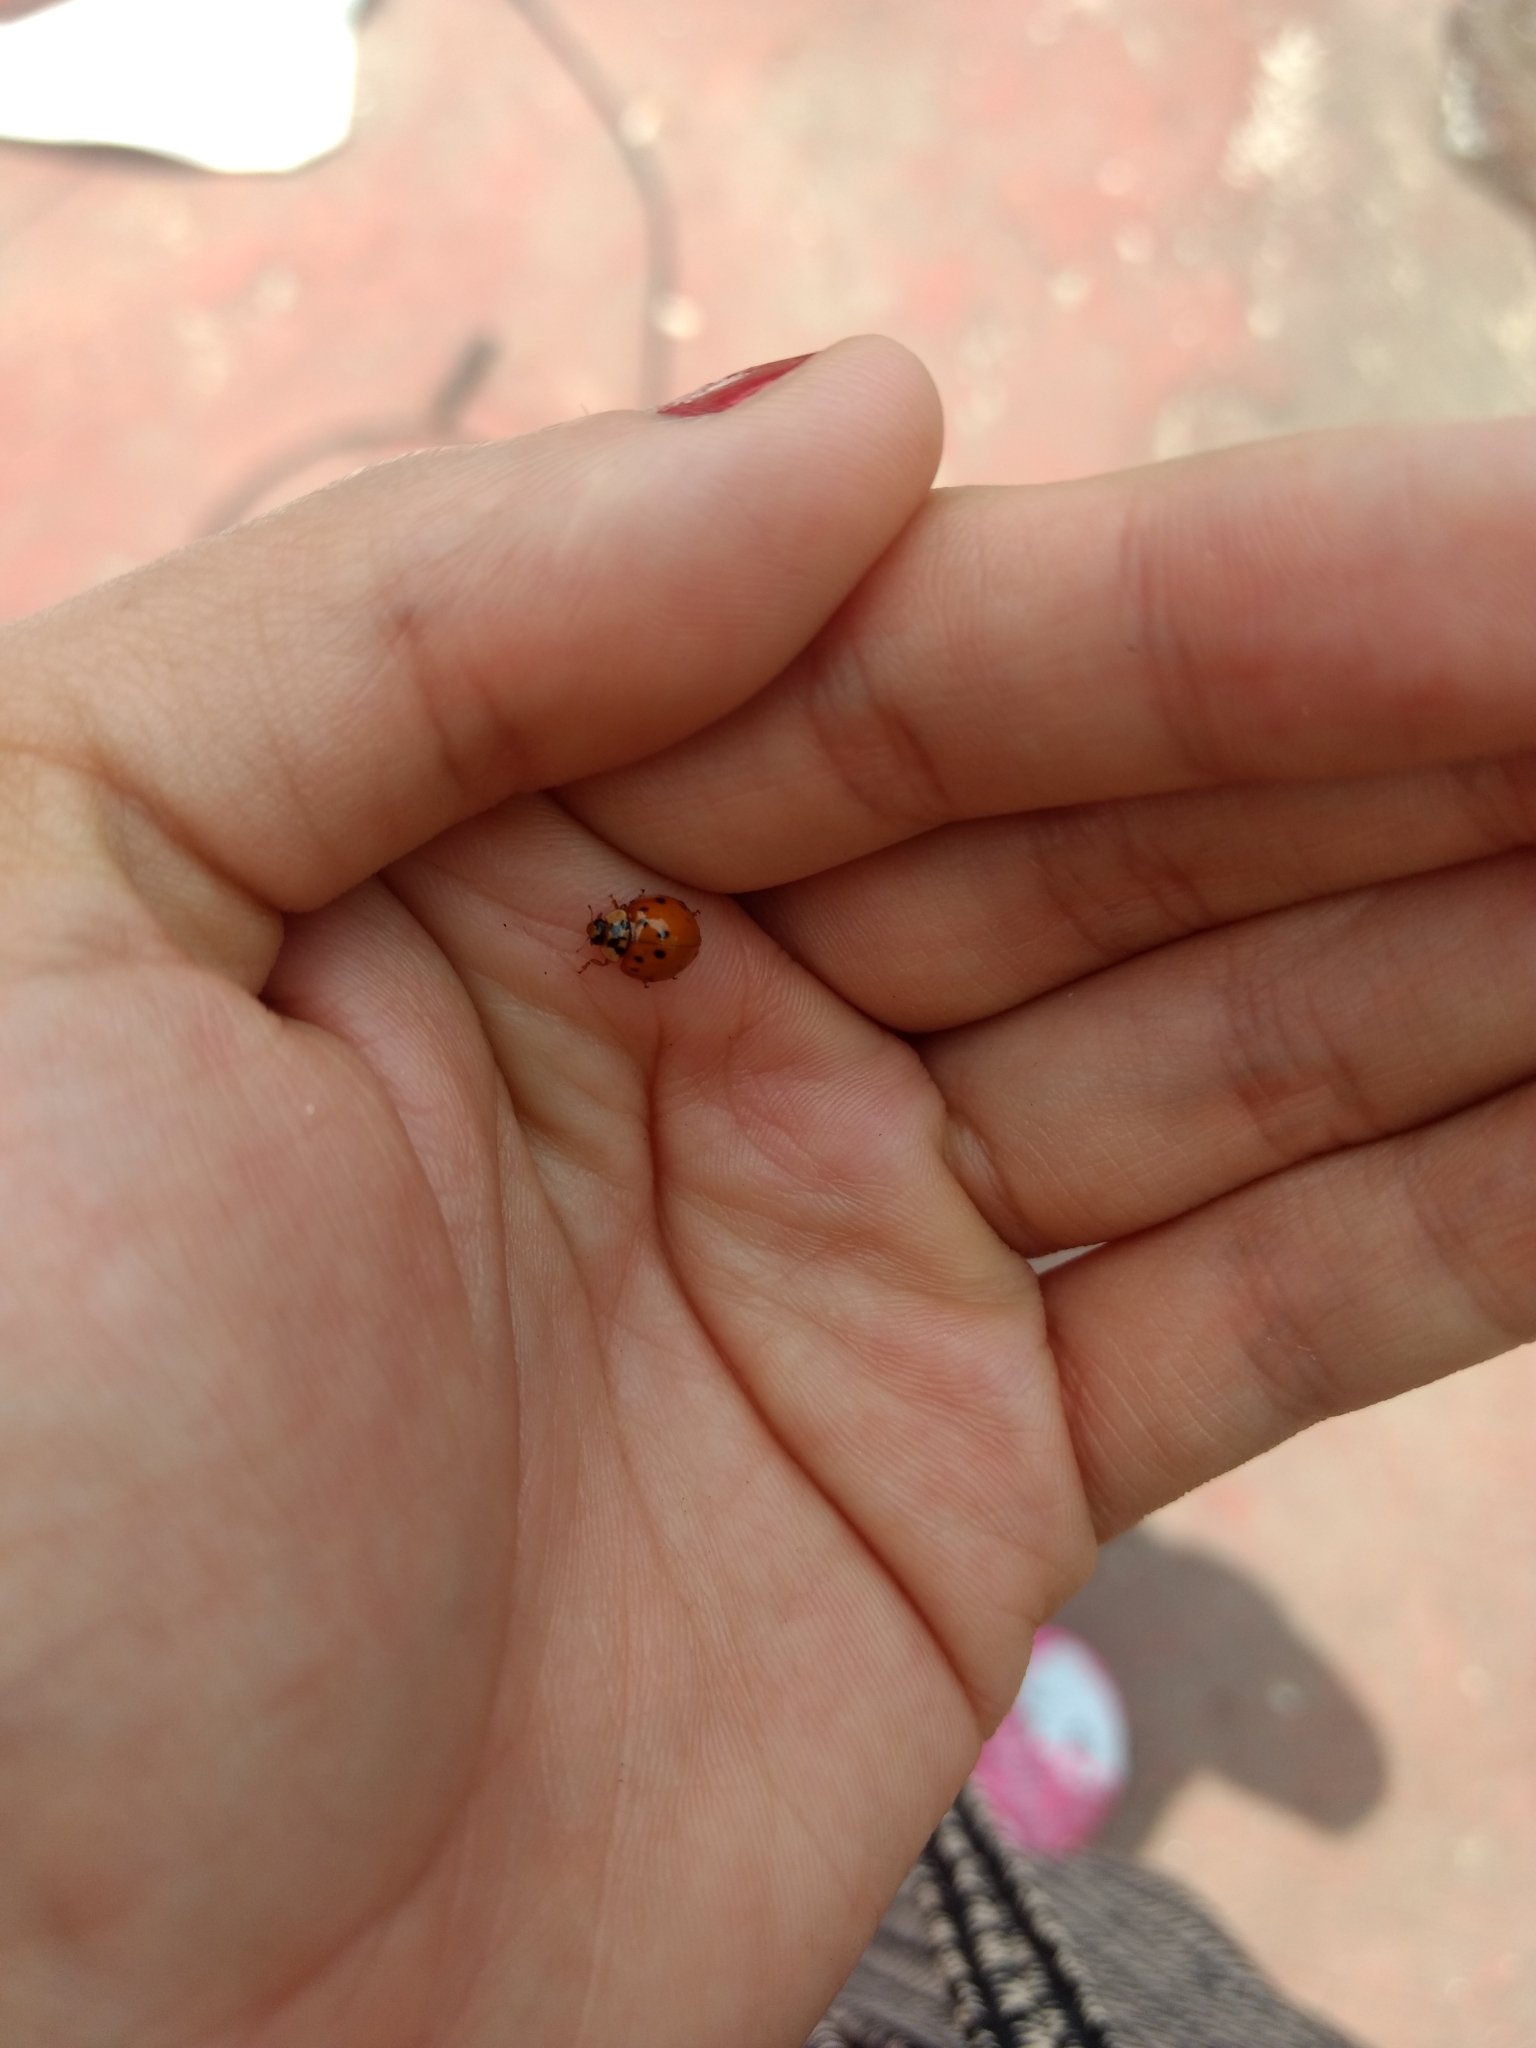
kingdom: Animalia
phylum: Arthropoda
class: Insecta
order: Coleoptera
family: Coccinellidae
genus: Harmonia
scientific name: Harmonia axyridis
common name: Harlequin ladybird
